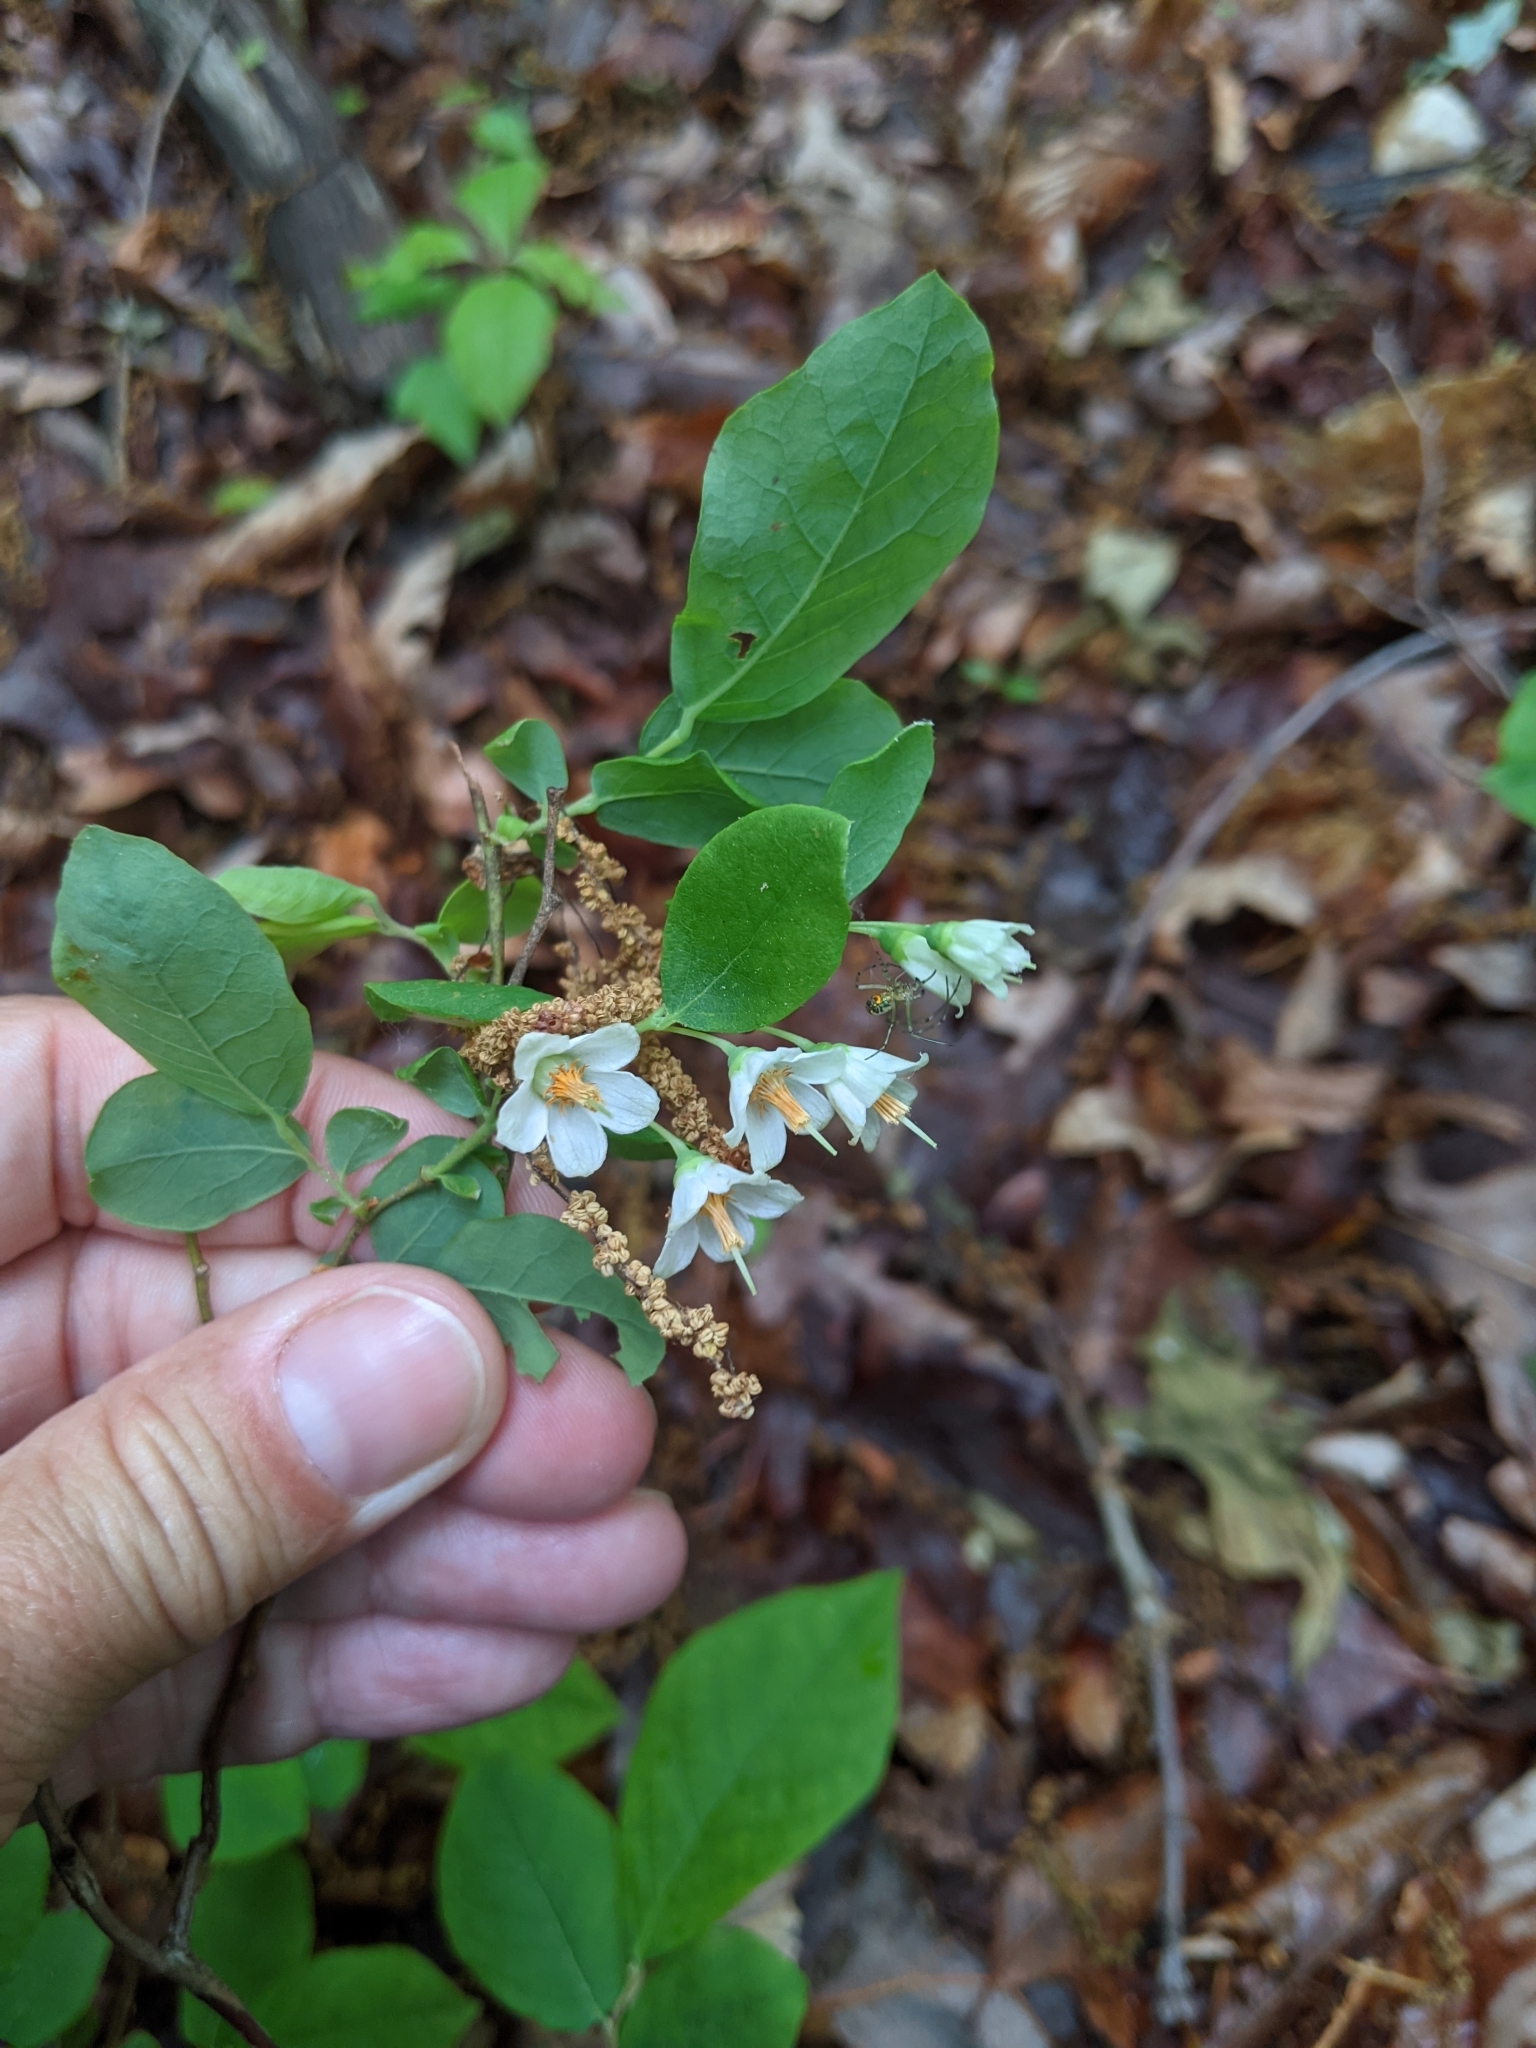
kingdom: Plantae
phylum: Tracheophyta
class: Magnoliopsida
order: Ericales
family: Ericaceae
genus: Vaccinium
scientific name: Vaccinium stamineum
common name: Deerberry
